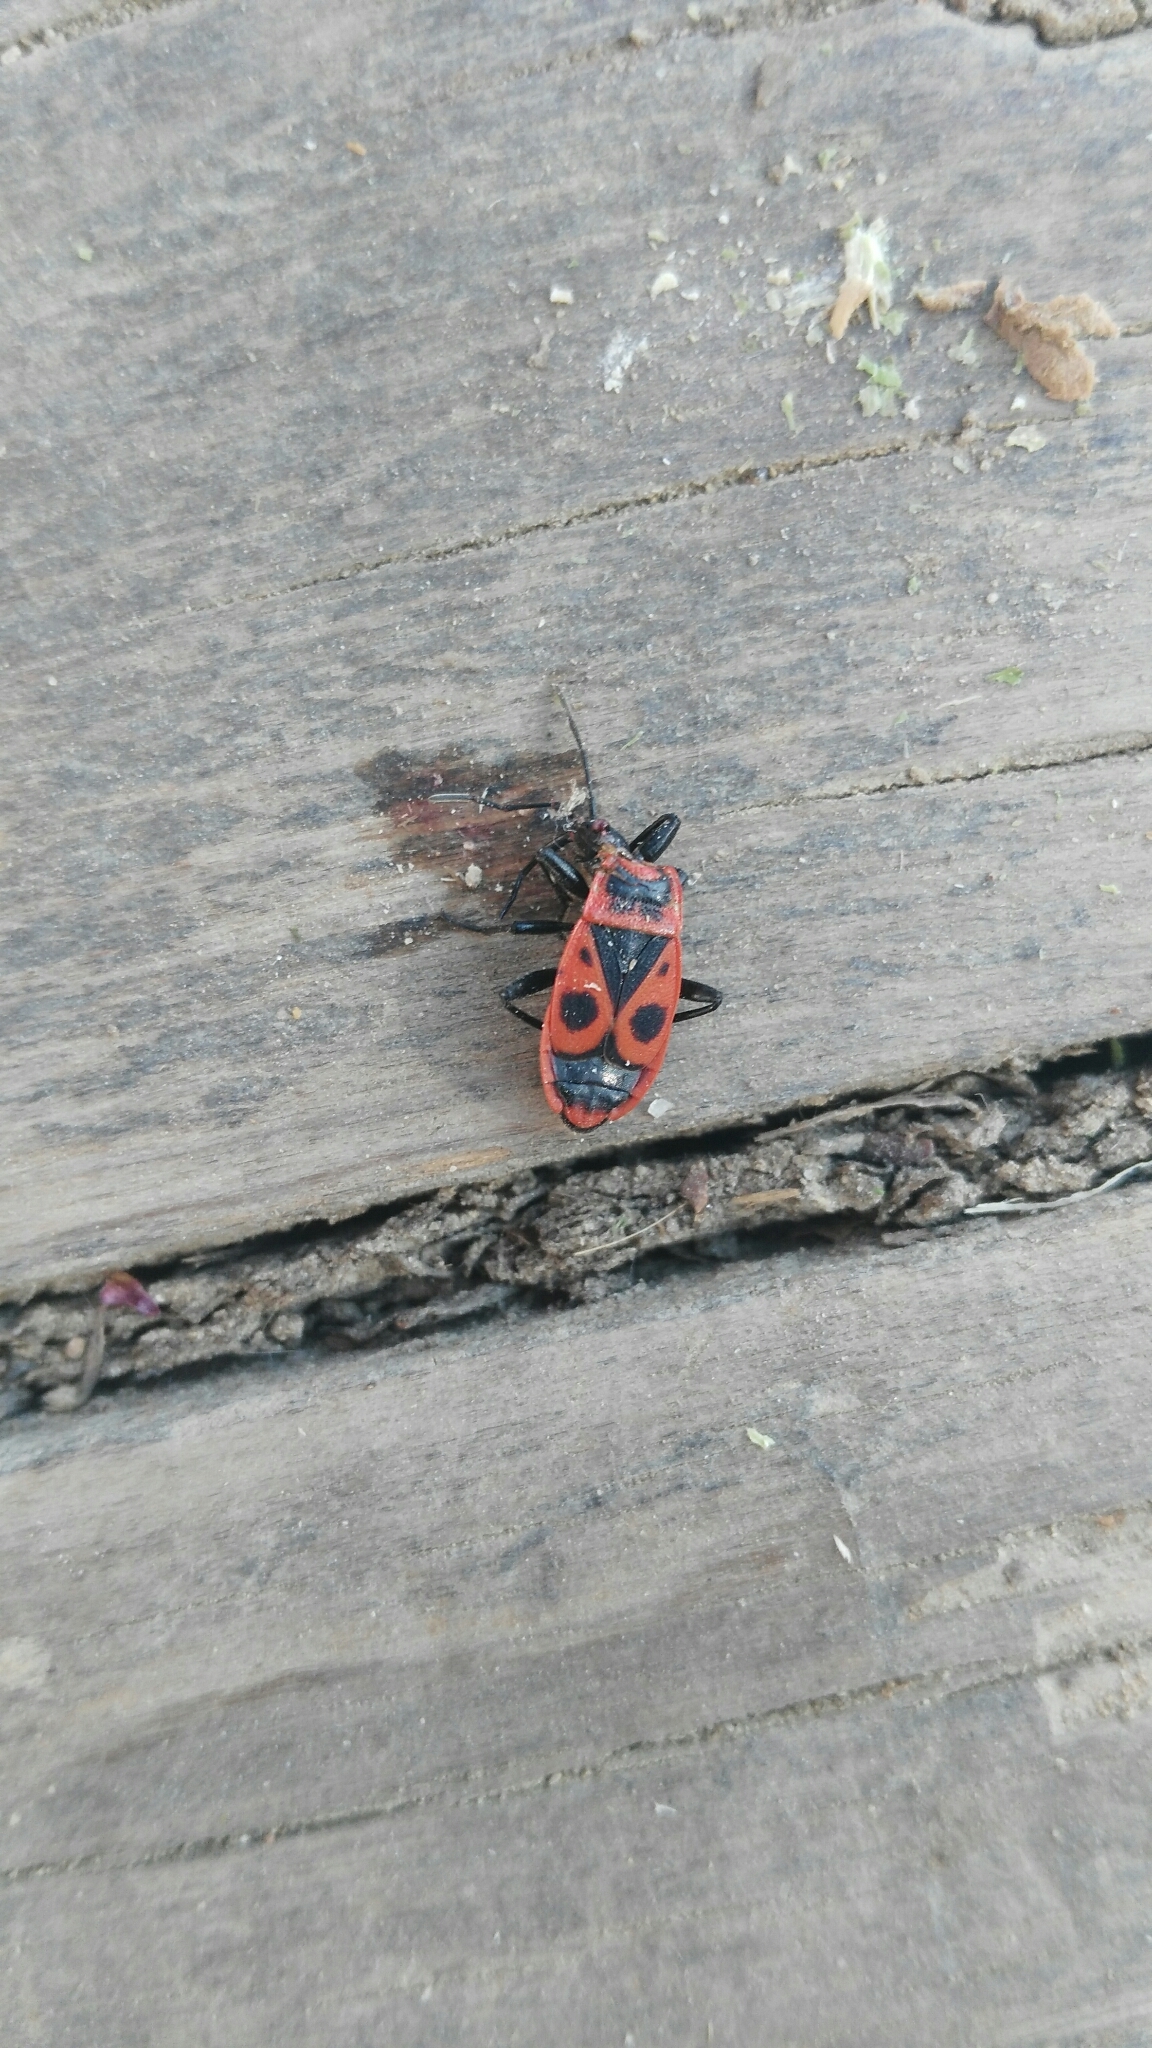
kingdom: Animalia
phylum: Arthropoda
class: Insecta
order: Hemiptera
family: Pyrrhocoridae
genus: Pyrrhocoris
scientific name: Pyrrhocoris apterus
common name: Firebug
